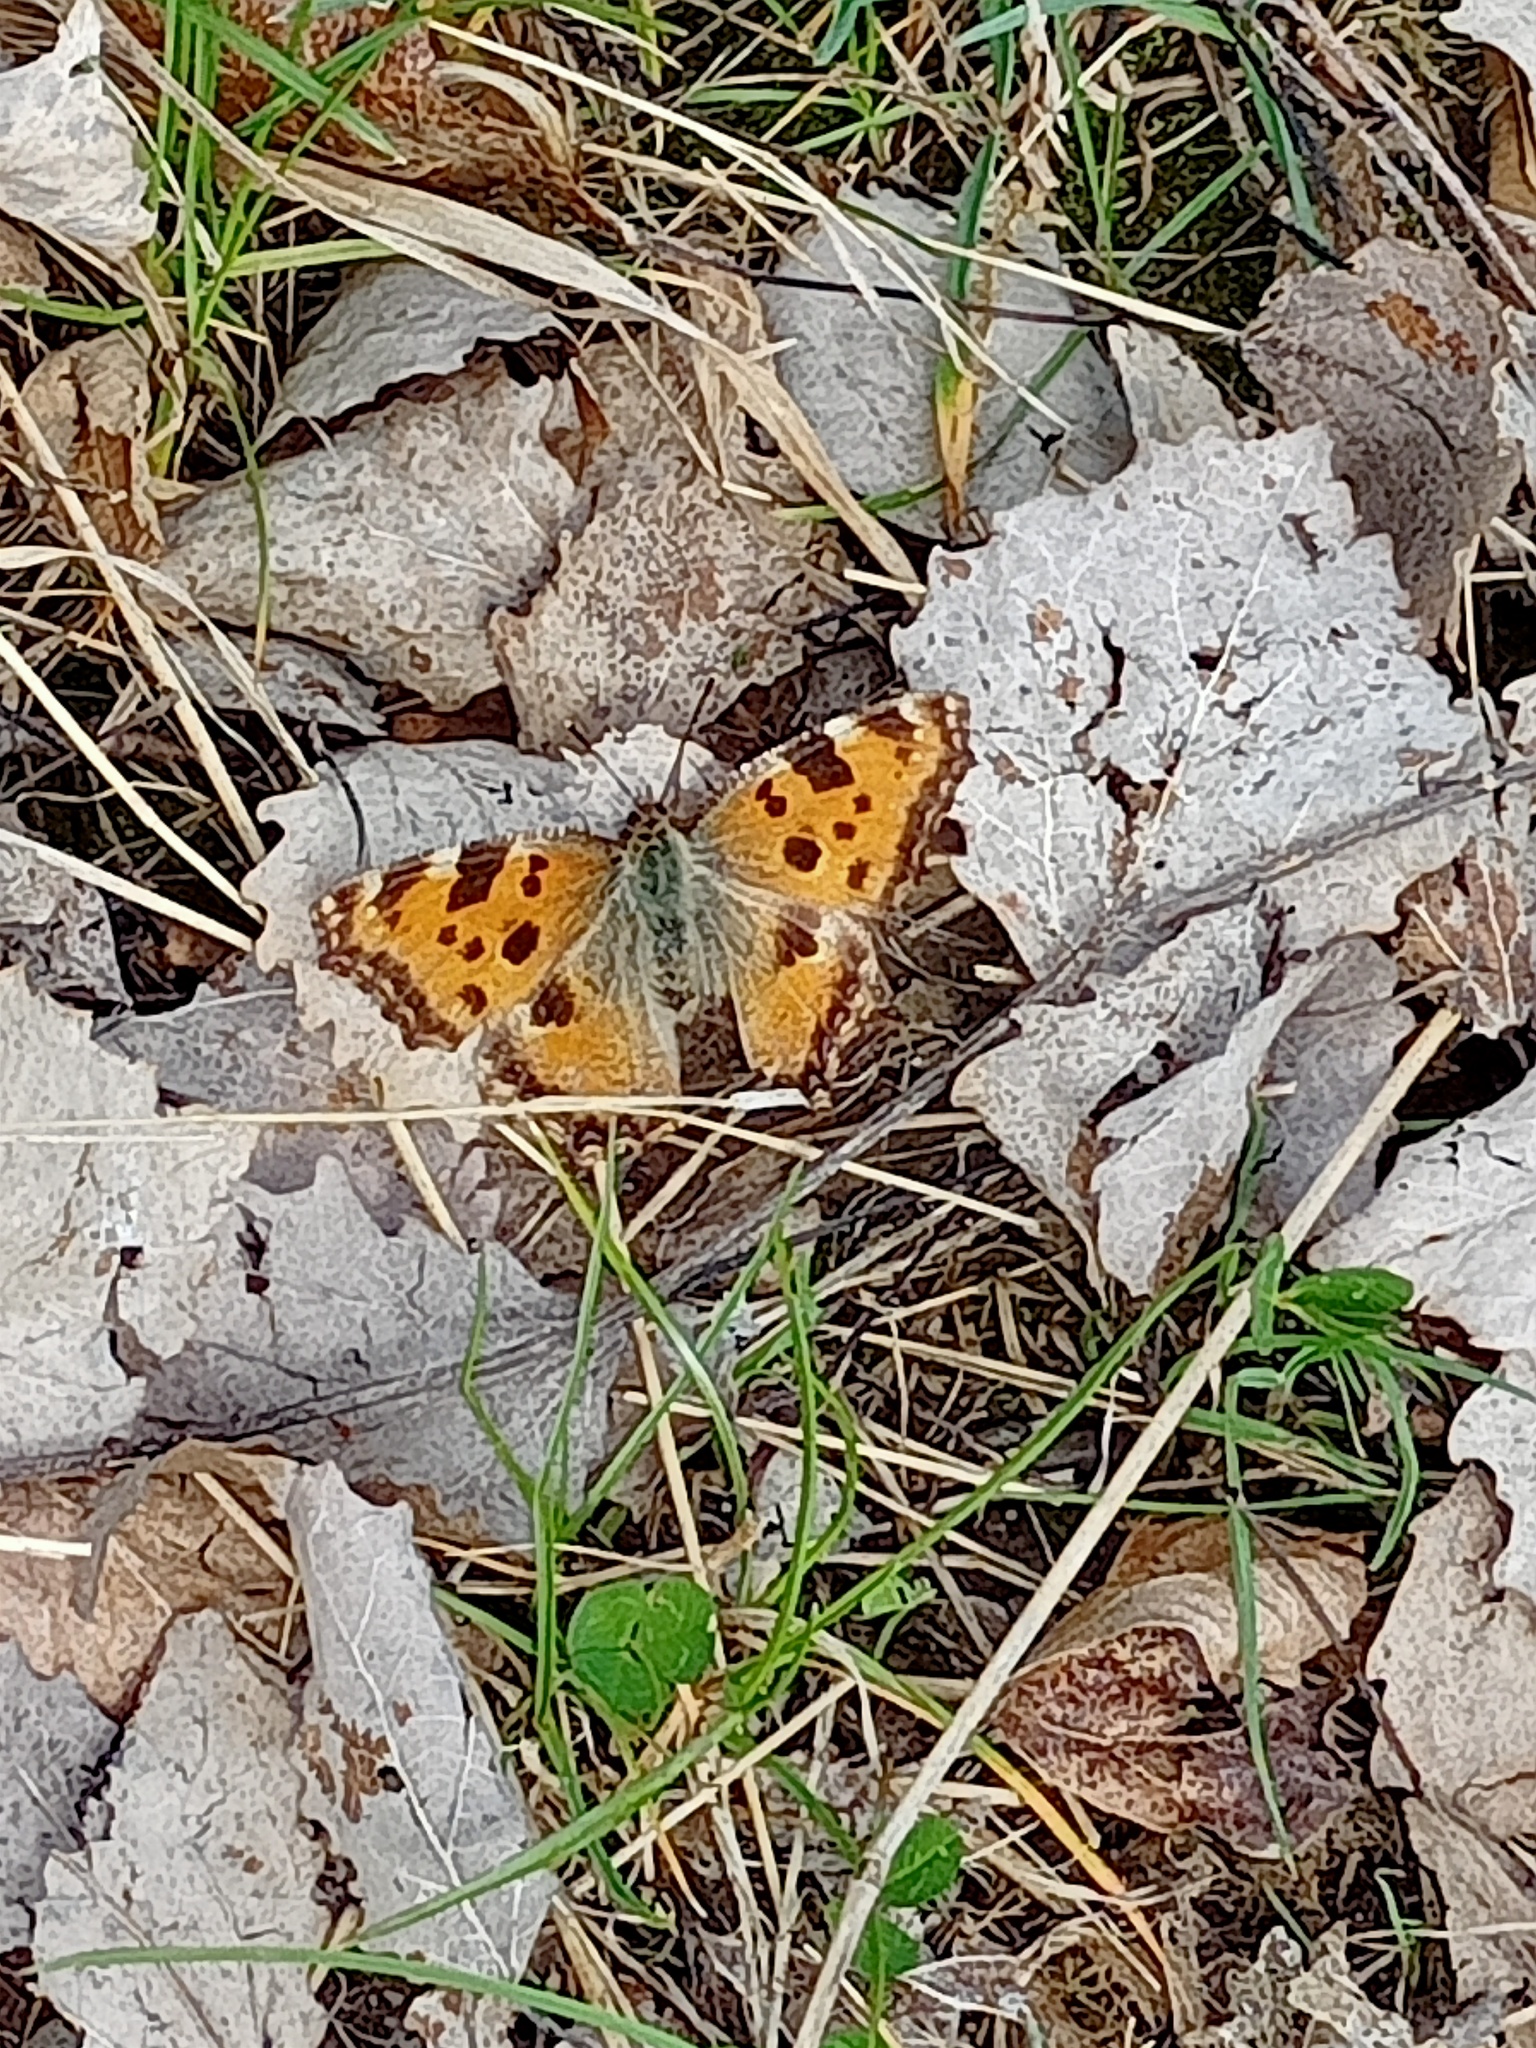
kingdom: Animalia
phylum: Arthropoda
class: Insecta
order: Lepidoptera
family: Nymphalidae
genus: Nymphalis
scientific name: Nymphalis polychloros
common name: Large tortoiseshell
